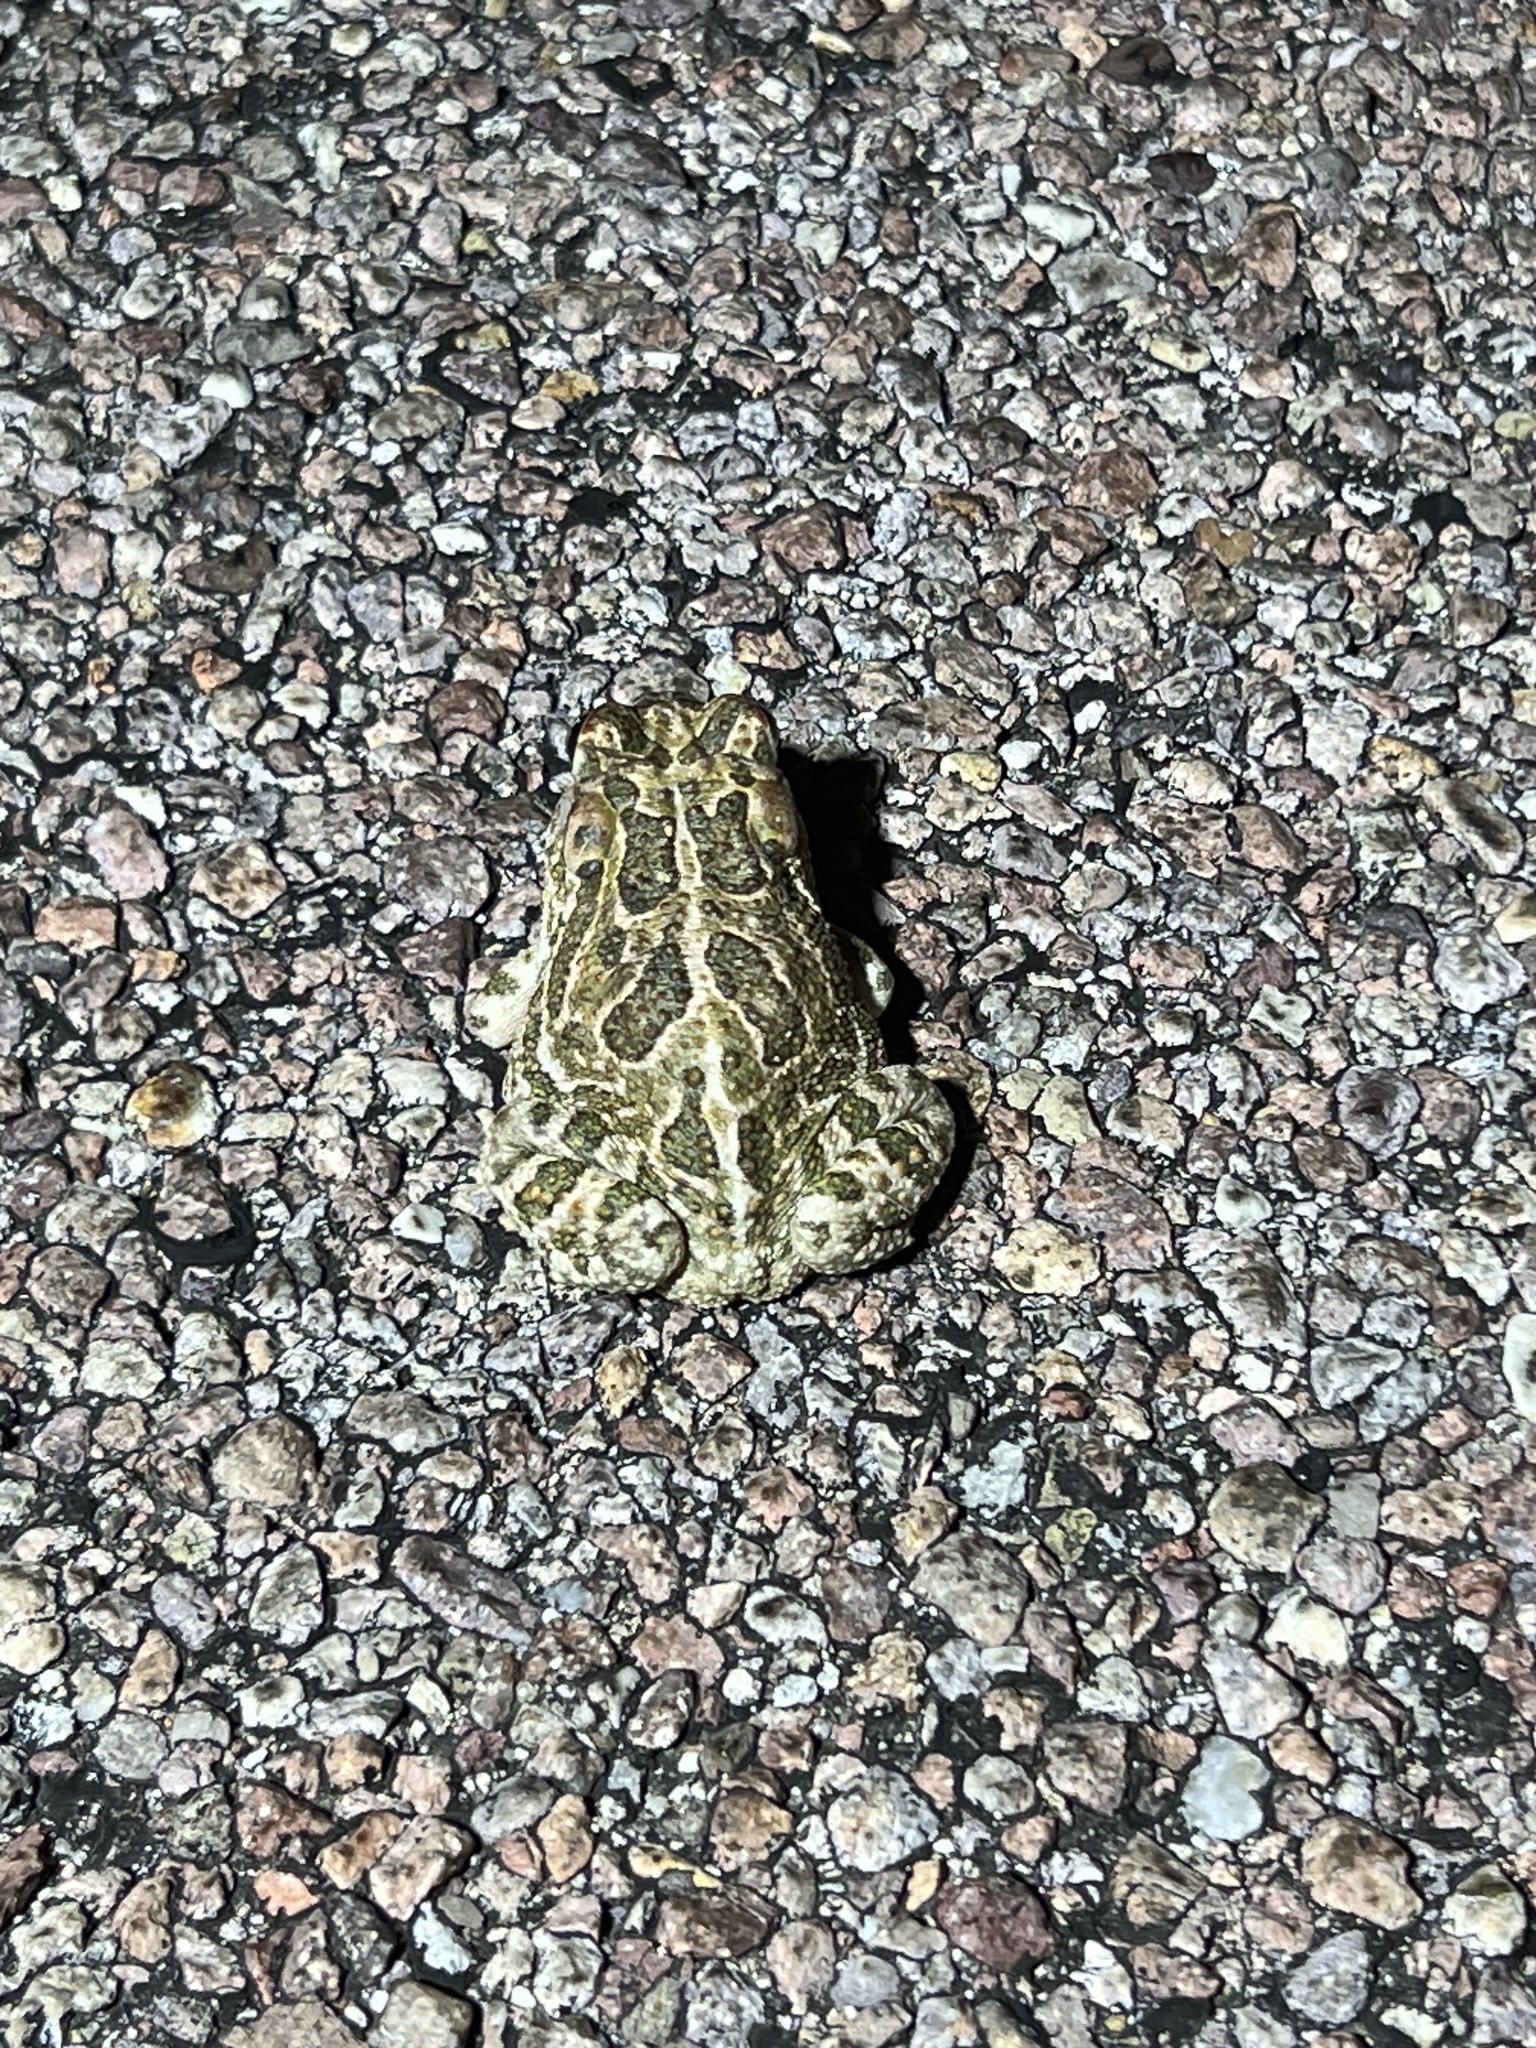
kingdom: Animalia
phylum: Chordata
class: Amphibia
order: Anura
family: Bufonidae
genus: Anaxyrus
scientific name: Anaxyrus cognatus
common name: Great plains toad
